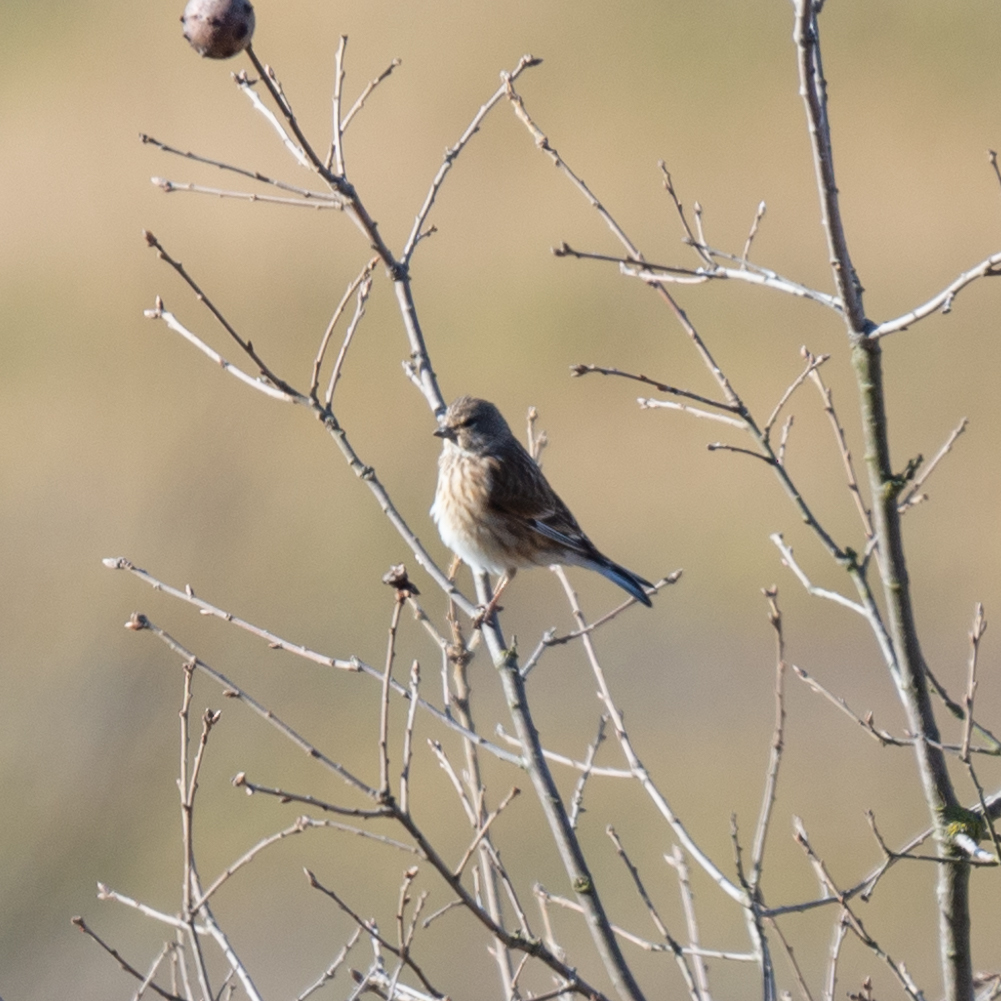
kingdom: Animalia
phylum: Chordata
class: Aves
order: Passeriformes
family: Fringillidae
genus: Linaria
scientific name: Linaria cannabina
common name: Common linnet
